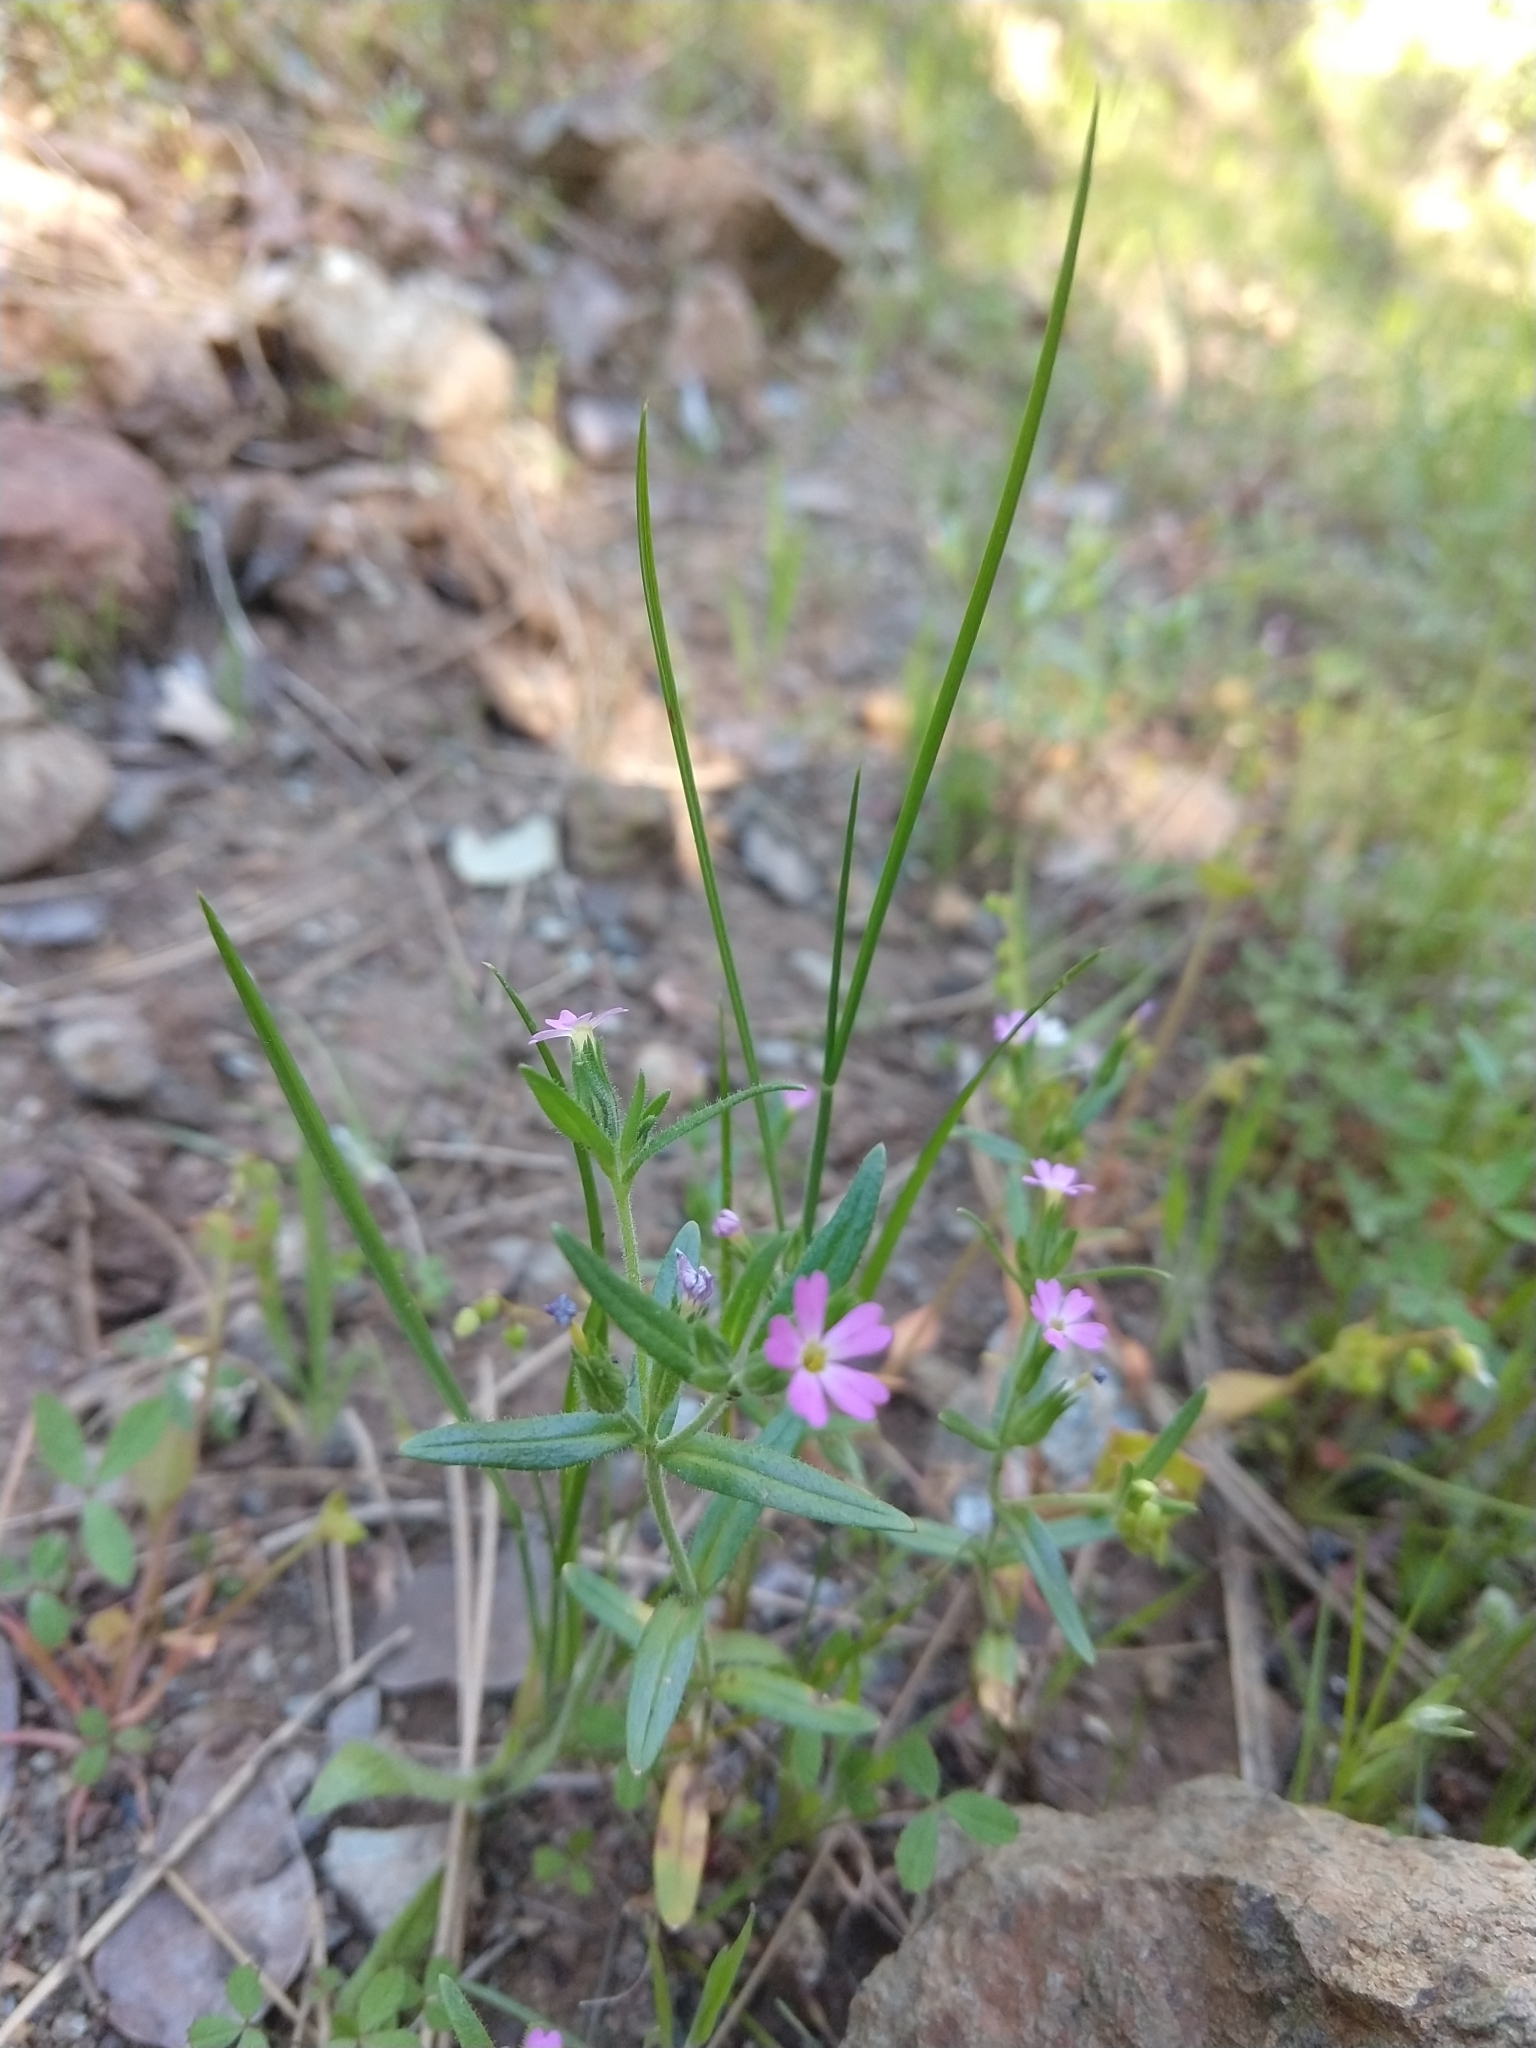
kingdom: Plantae
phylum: Tracheophyta
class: Magnoliopsida
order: Ericales
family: Polemoniaceae
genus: Phlox
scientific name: Phlox gracilis
